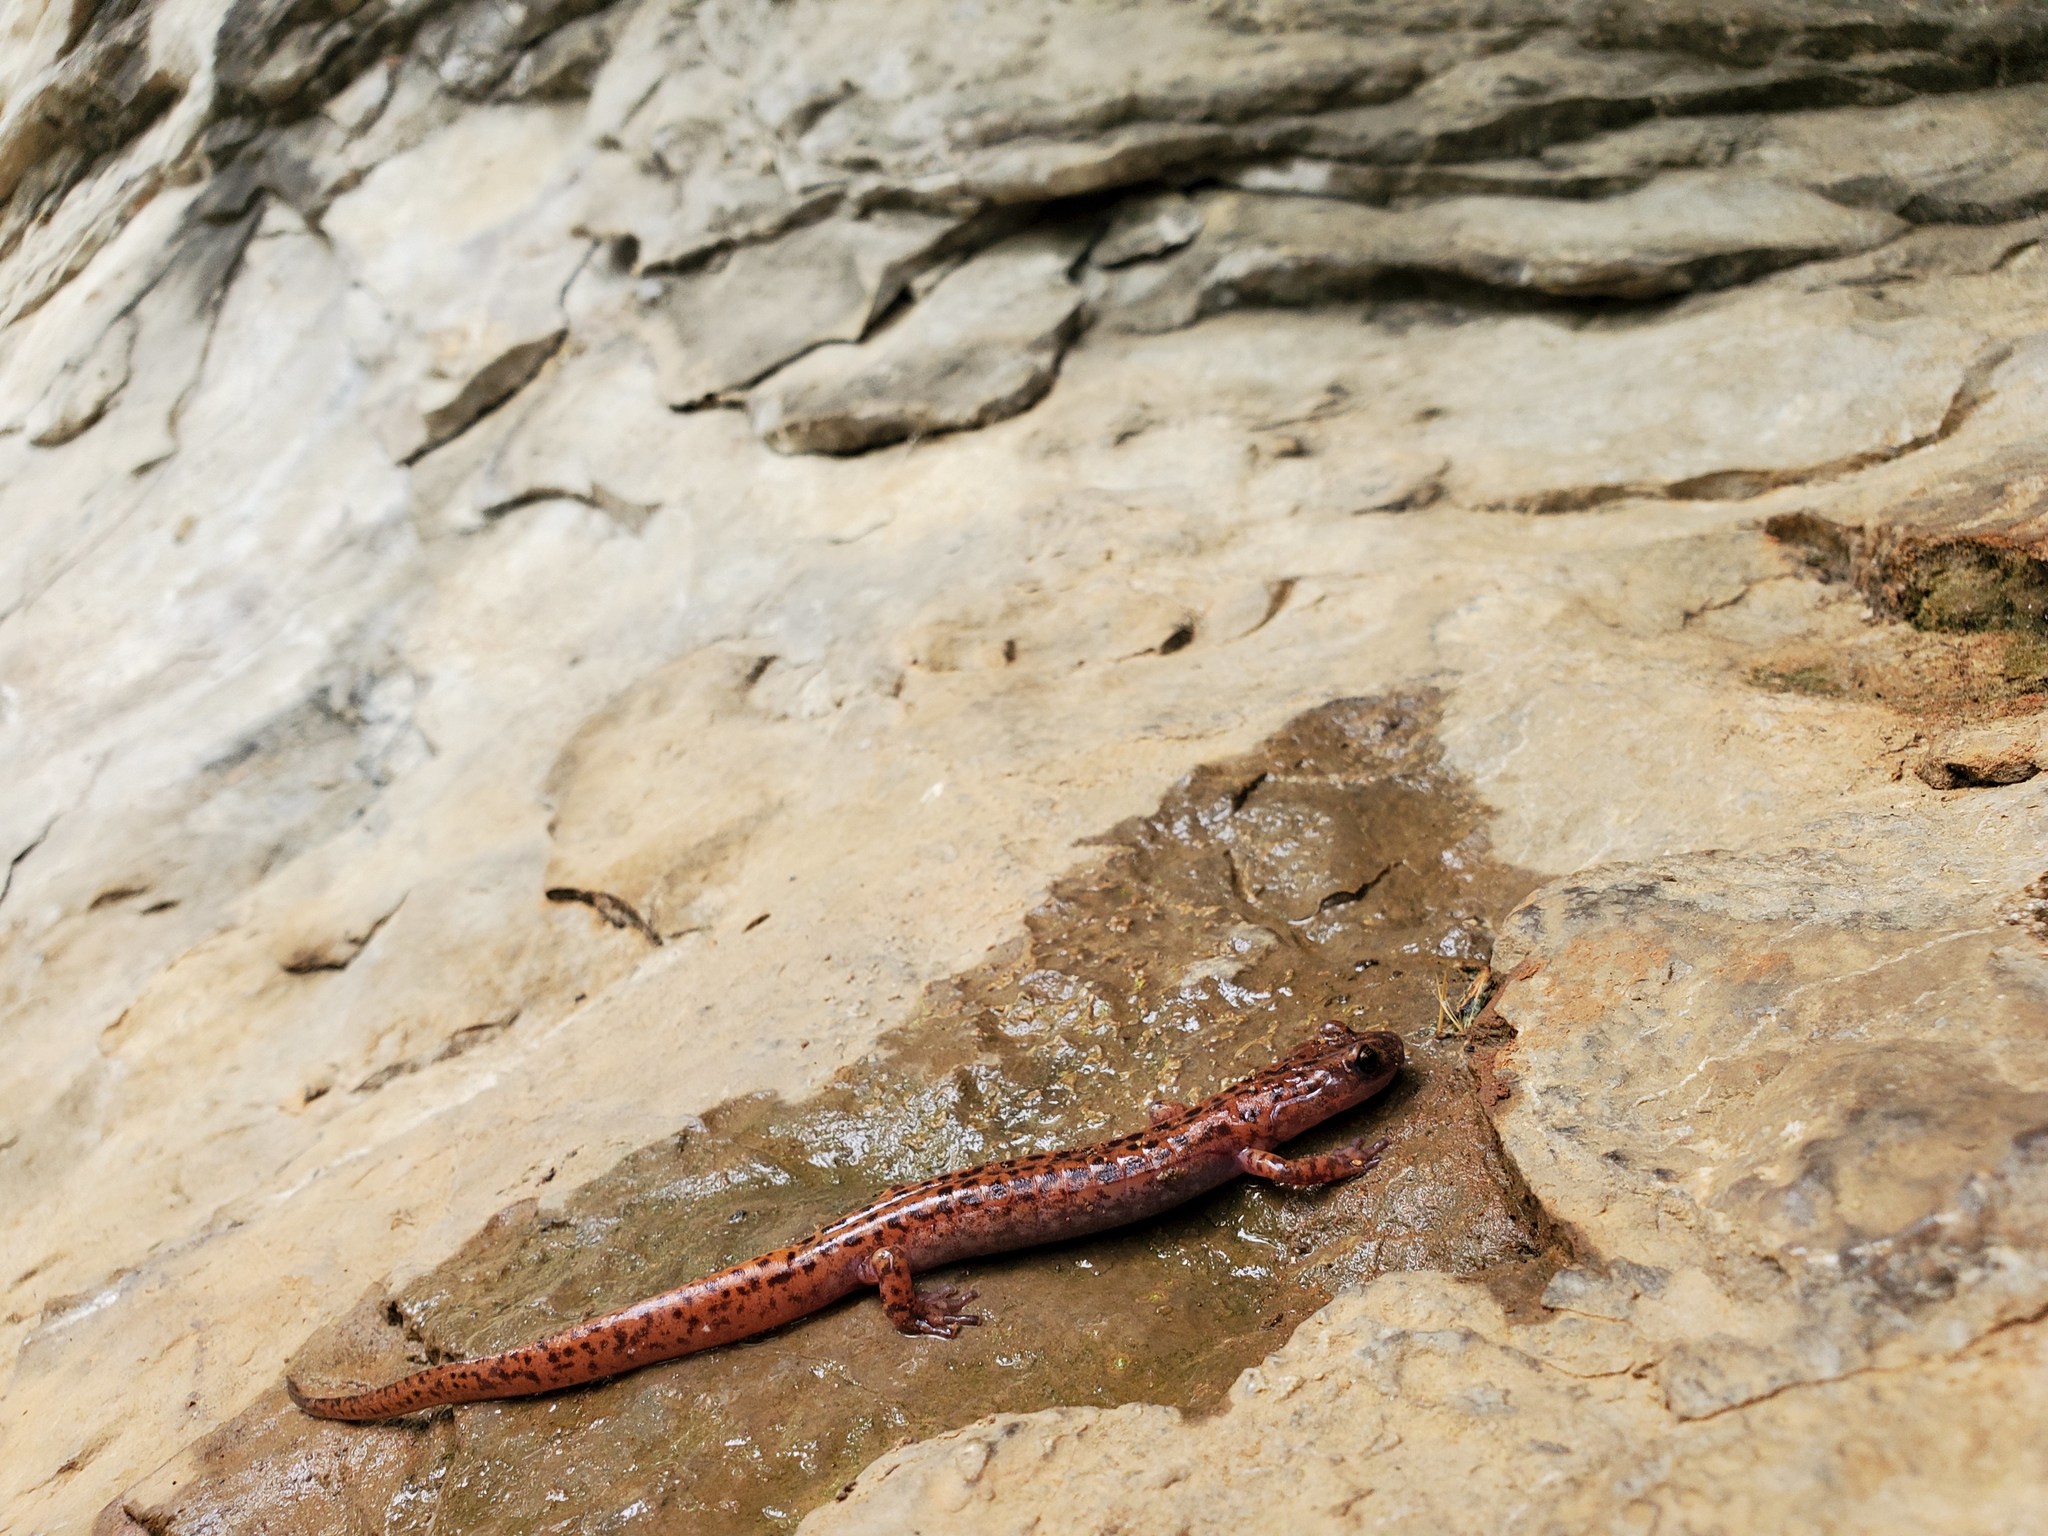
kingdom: Animalia
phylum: Chordata
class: Amphibia
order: Caudata
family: Plethodontidae
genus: Eurycea
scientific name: Eurycea lucifuga
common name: Cave salamander
